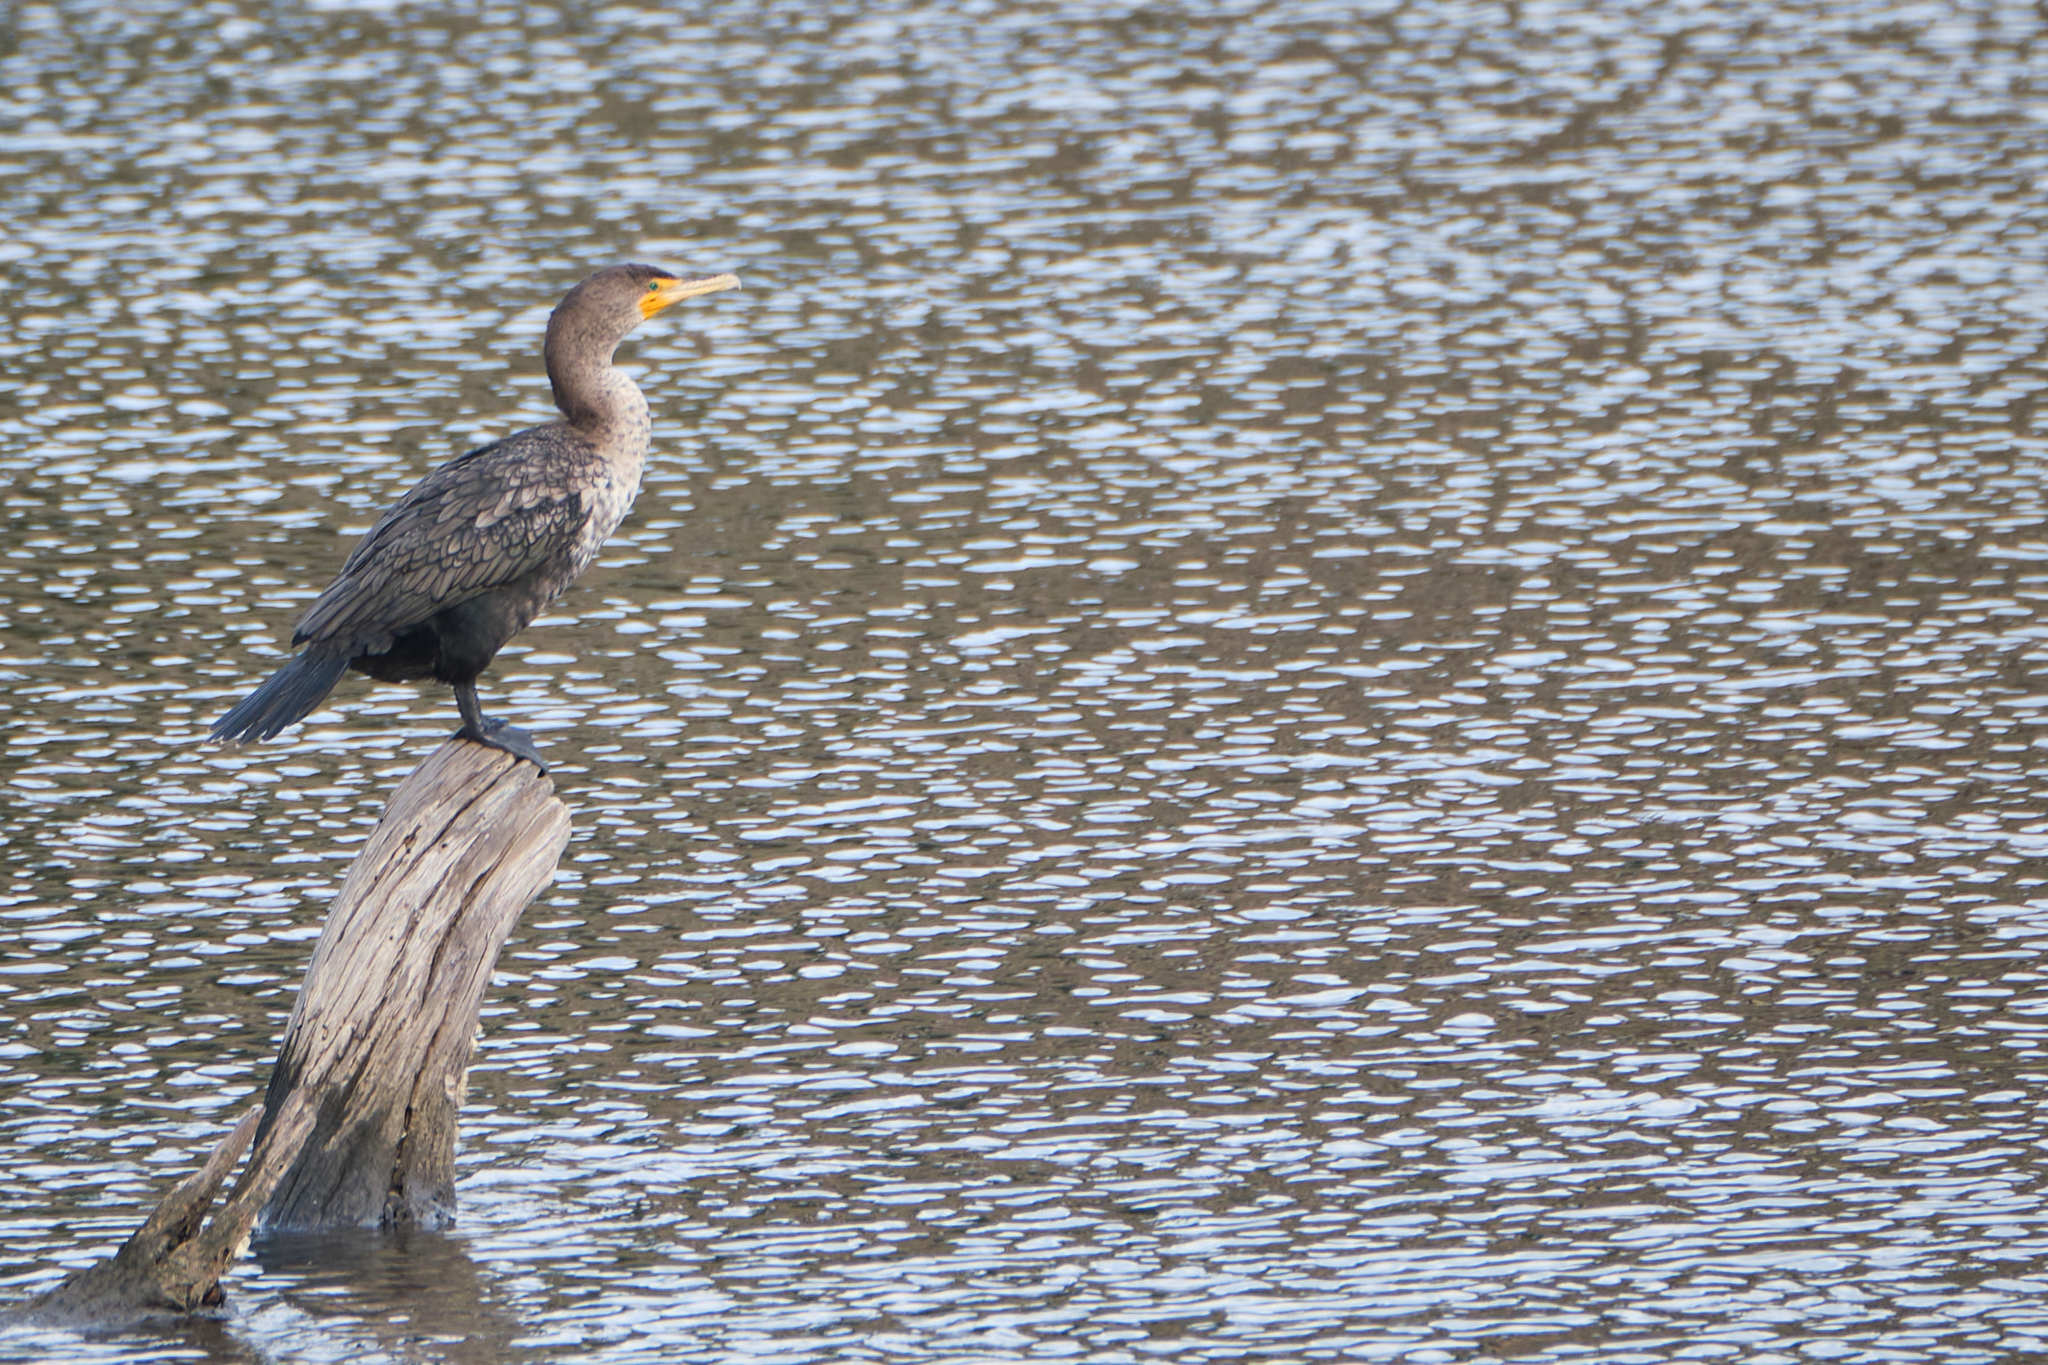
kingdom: Animalia
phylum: Chordata
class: Aves
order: Suliformes
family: Phalacrocoracidae
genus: Phalacrocorax
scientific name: Phalacrocorax auritus
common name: Double-crested cormorant
